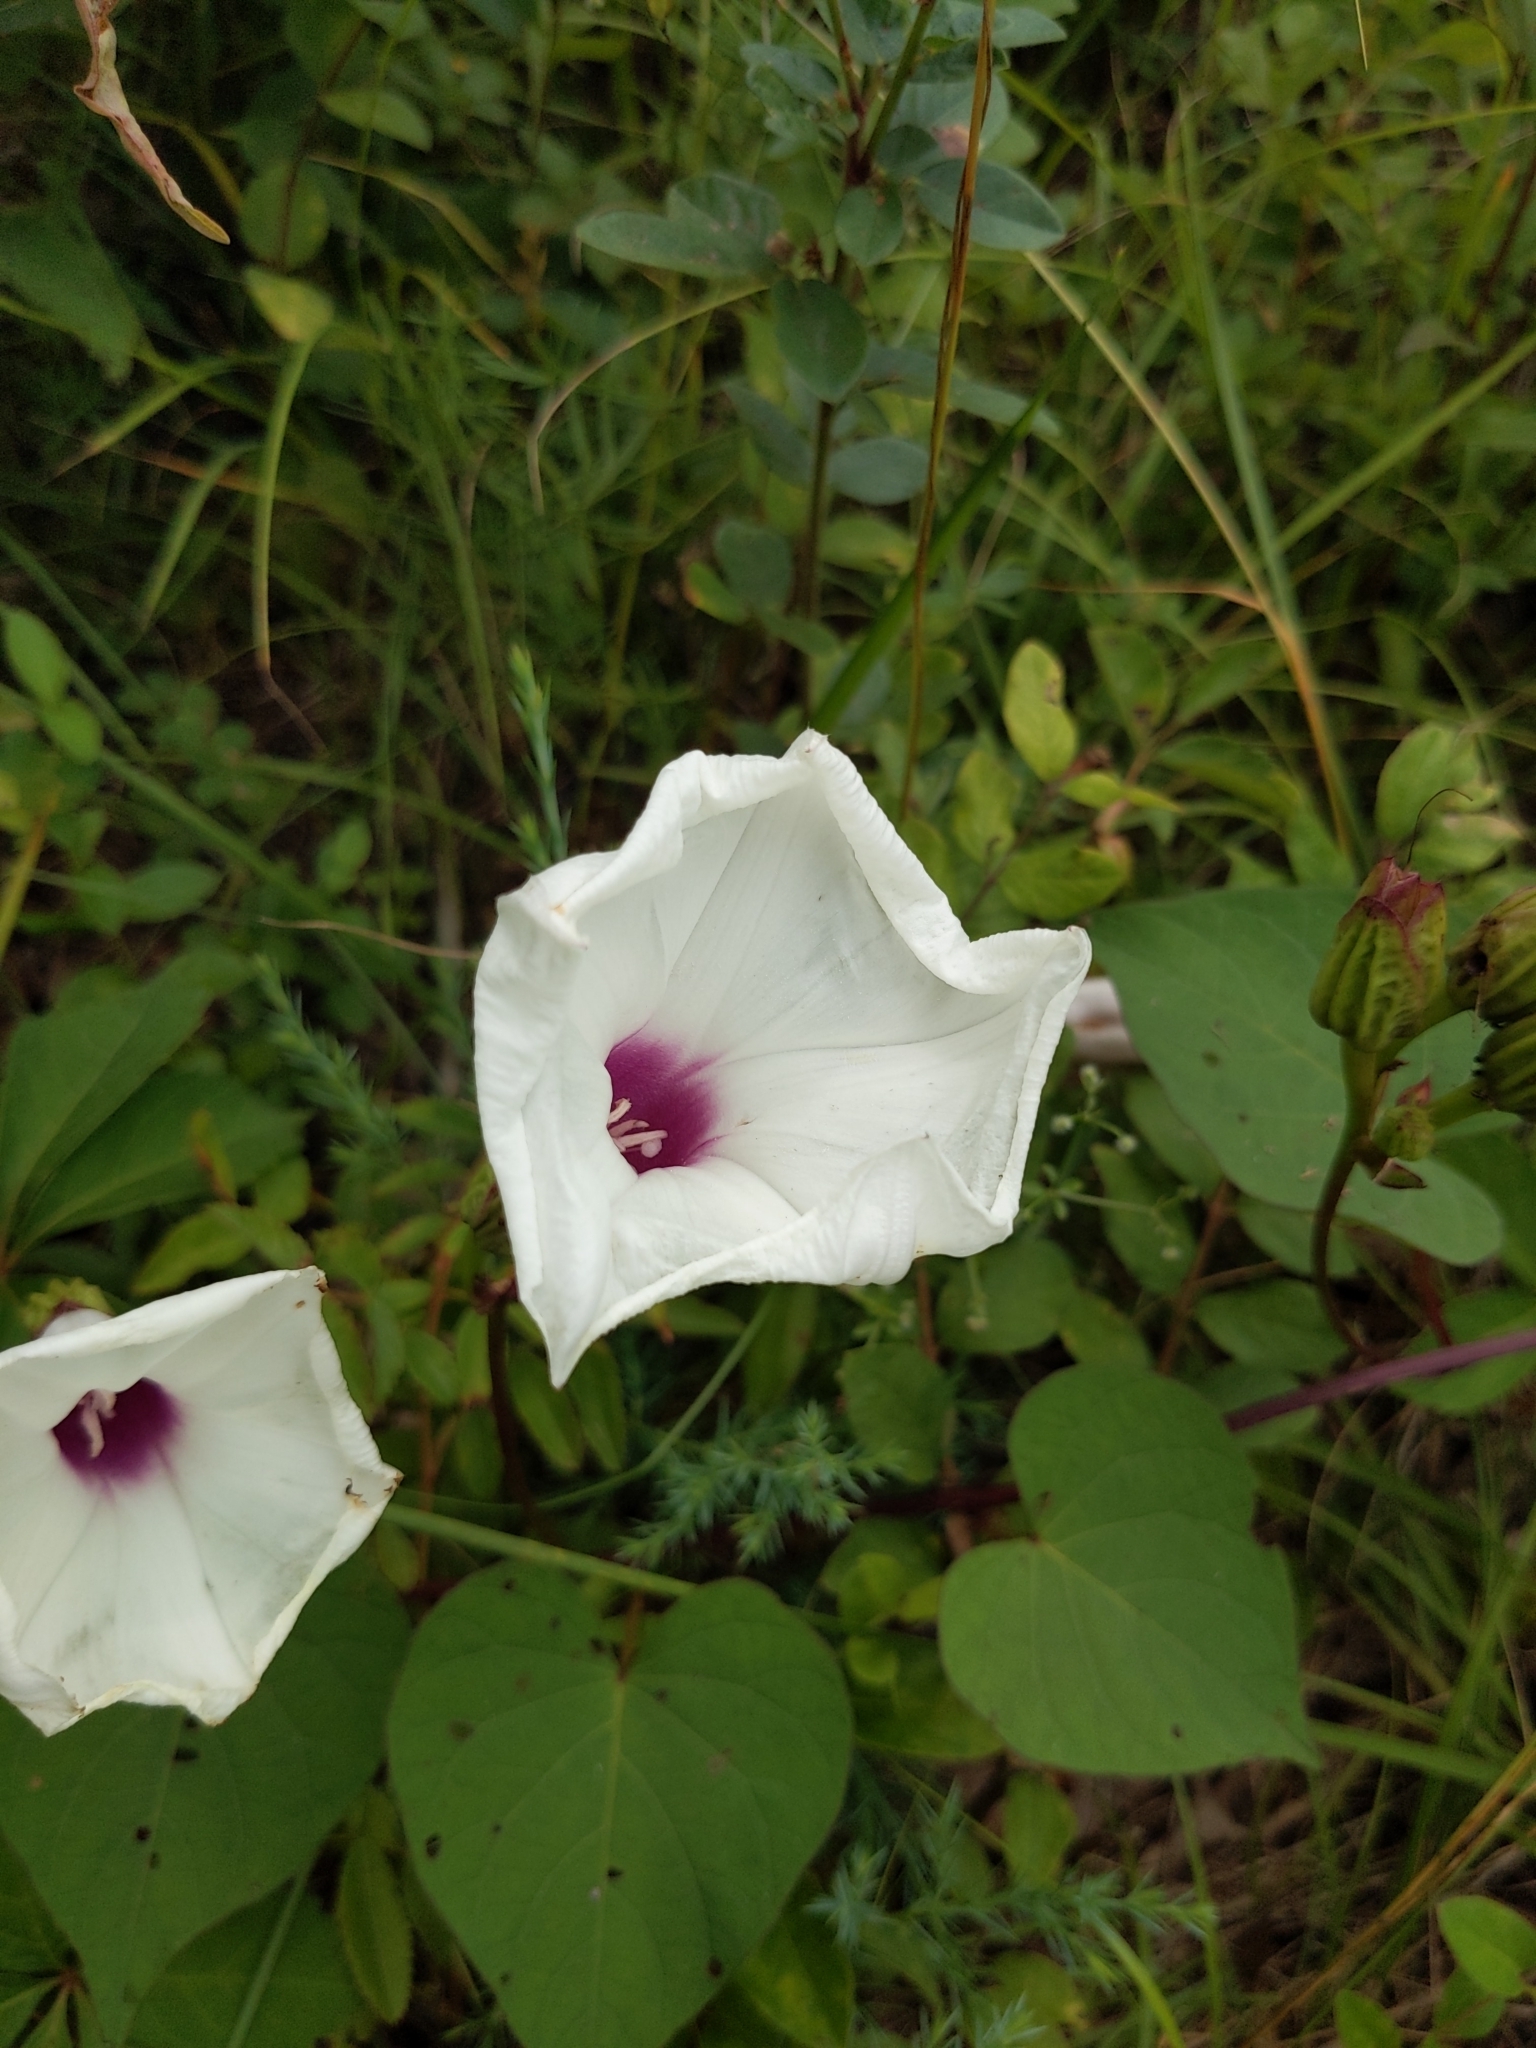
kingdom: Plantae
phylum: Tracheophyta
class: Magnoliopsida
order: Solanales
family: Convolvulaceae
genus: Ipomoea
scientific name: Ipomoea pandurata
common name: Man-of-the-earth
